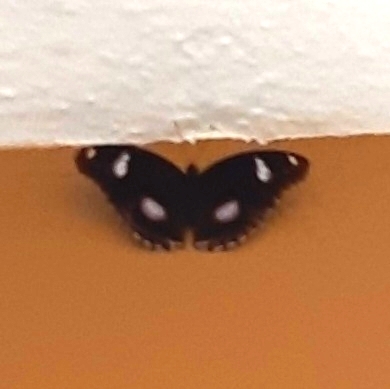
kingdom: Animalia
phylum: Arthropoda
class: Insecta
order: Lepidoptera
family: Nymphalidae
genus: Hypolimnas
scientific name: Hypolimnas bolina
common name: Great eggfly
